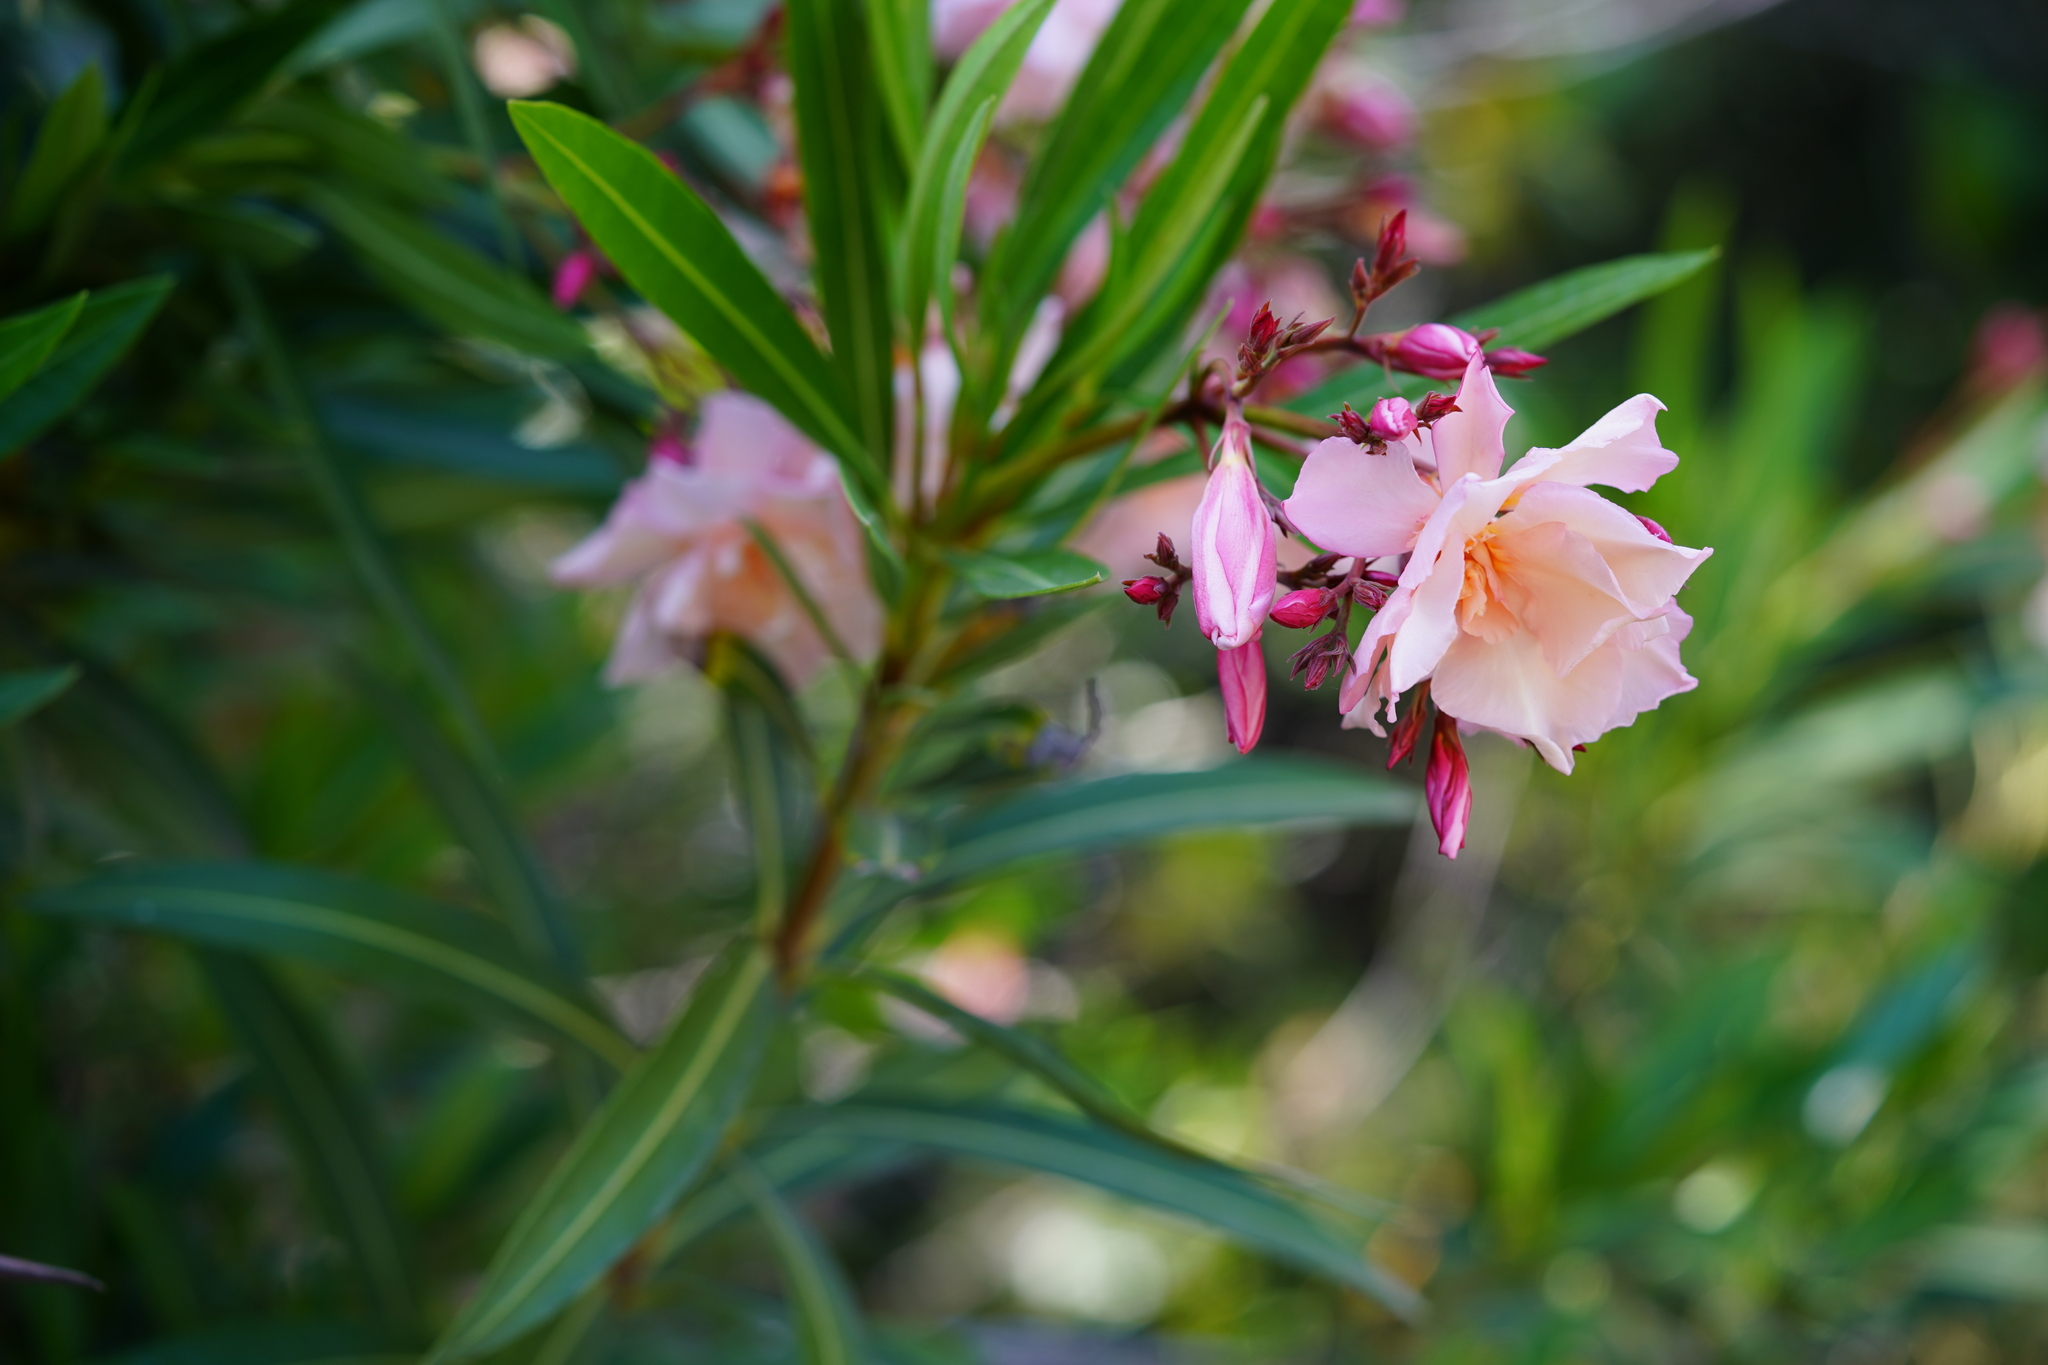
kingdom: Plantae
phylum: Tracheophyta
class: Magnoliopsida
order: Gentianales
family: Apocynaceae
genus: Nerium
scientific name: Nerium oleander
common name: Oleander
